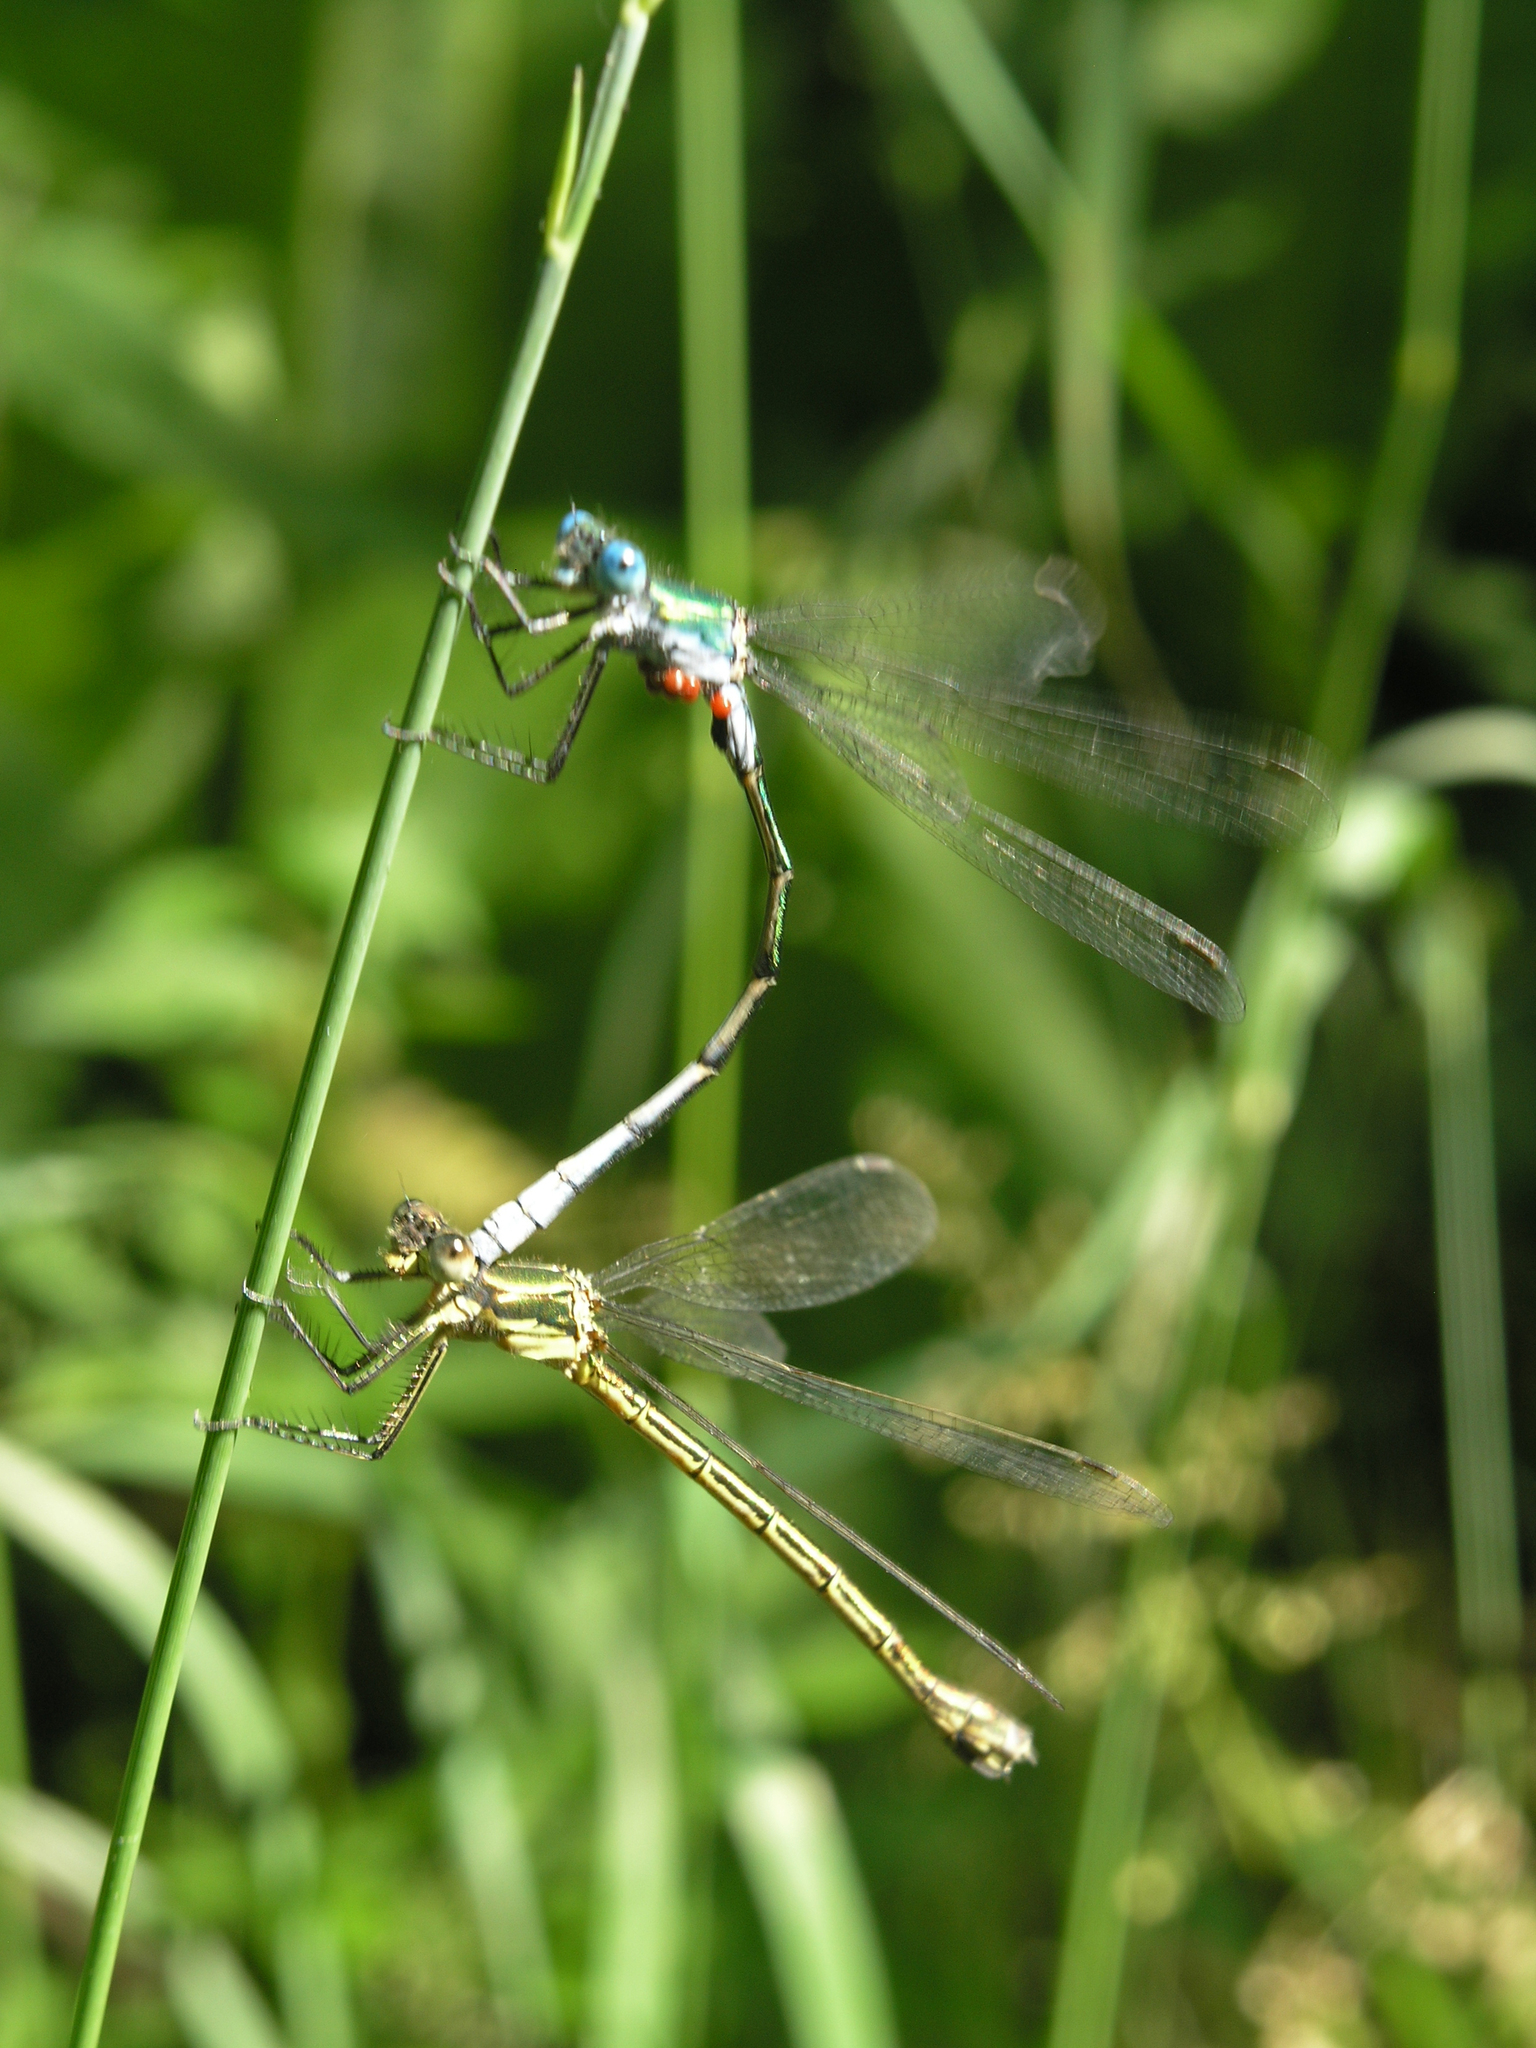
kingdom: Animalia
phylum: Arthropoda
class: Insecta
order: Odonata
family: Lestidae
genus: Lestes
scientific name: Lestes dryas
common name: Scarce emerald damselfly
